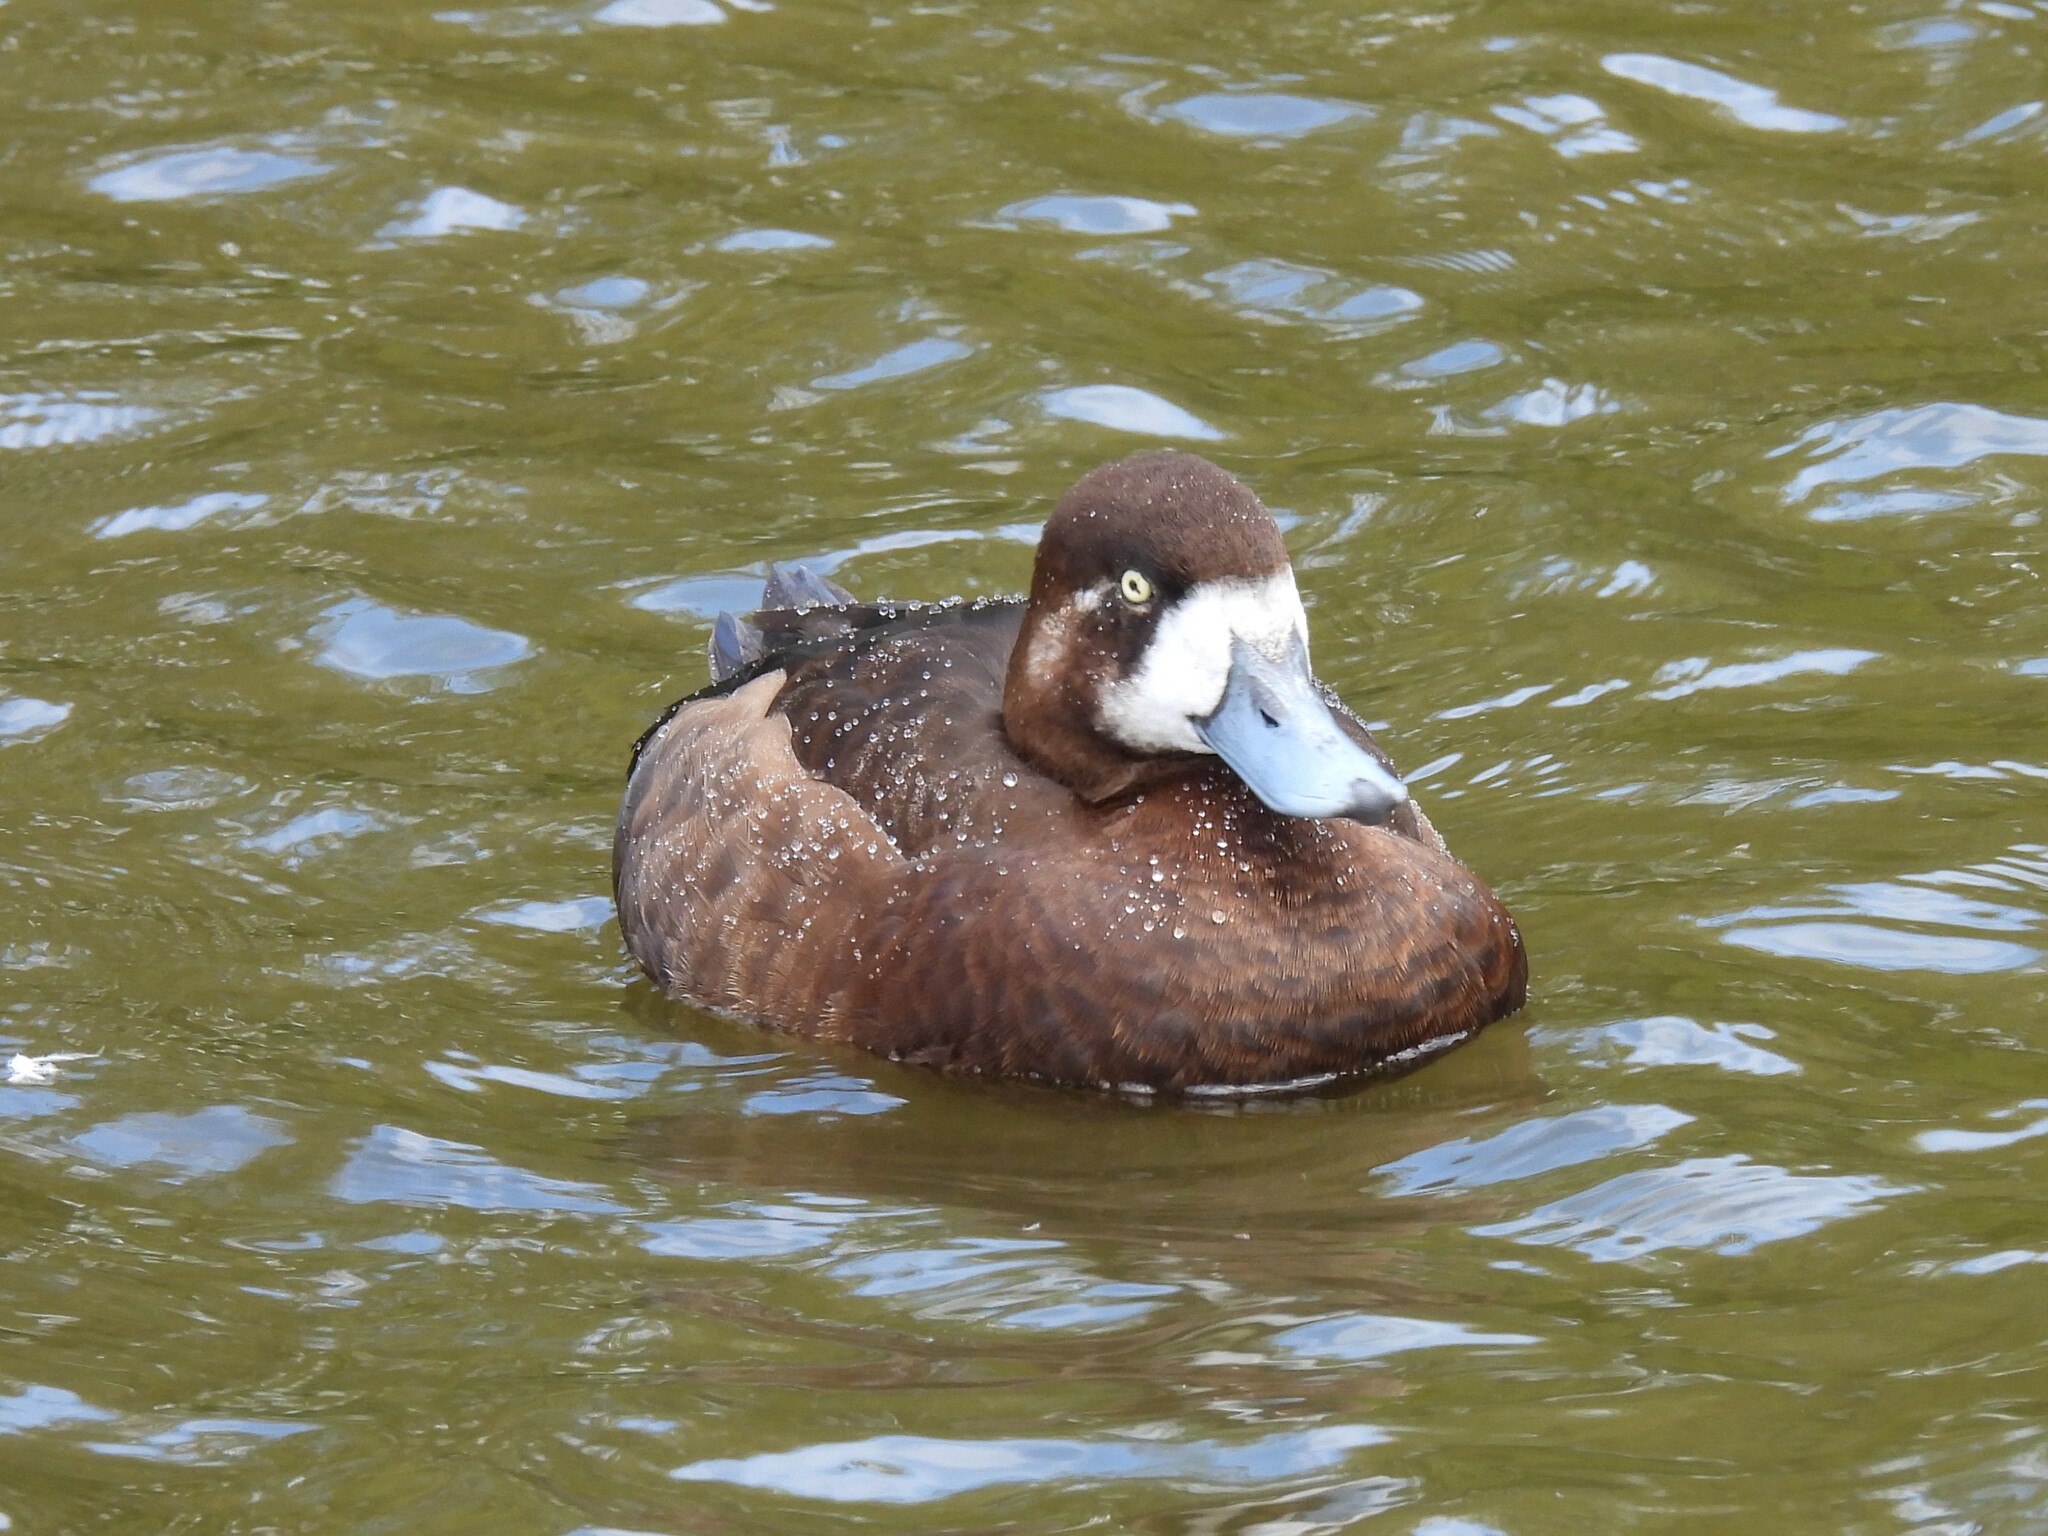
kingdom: Animalia
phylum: Chordata
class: Aves
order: Anseriformes
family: Anatidae
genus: Aythya
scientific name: Aythya marila
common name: Greater scaup
